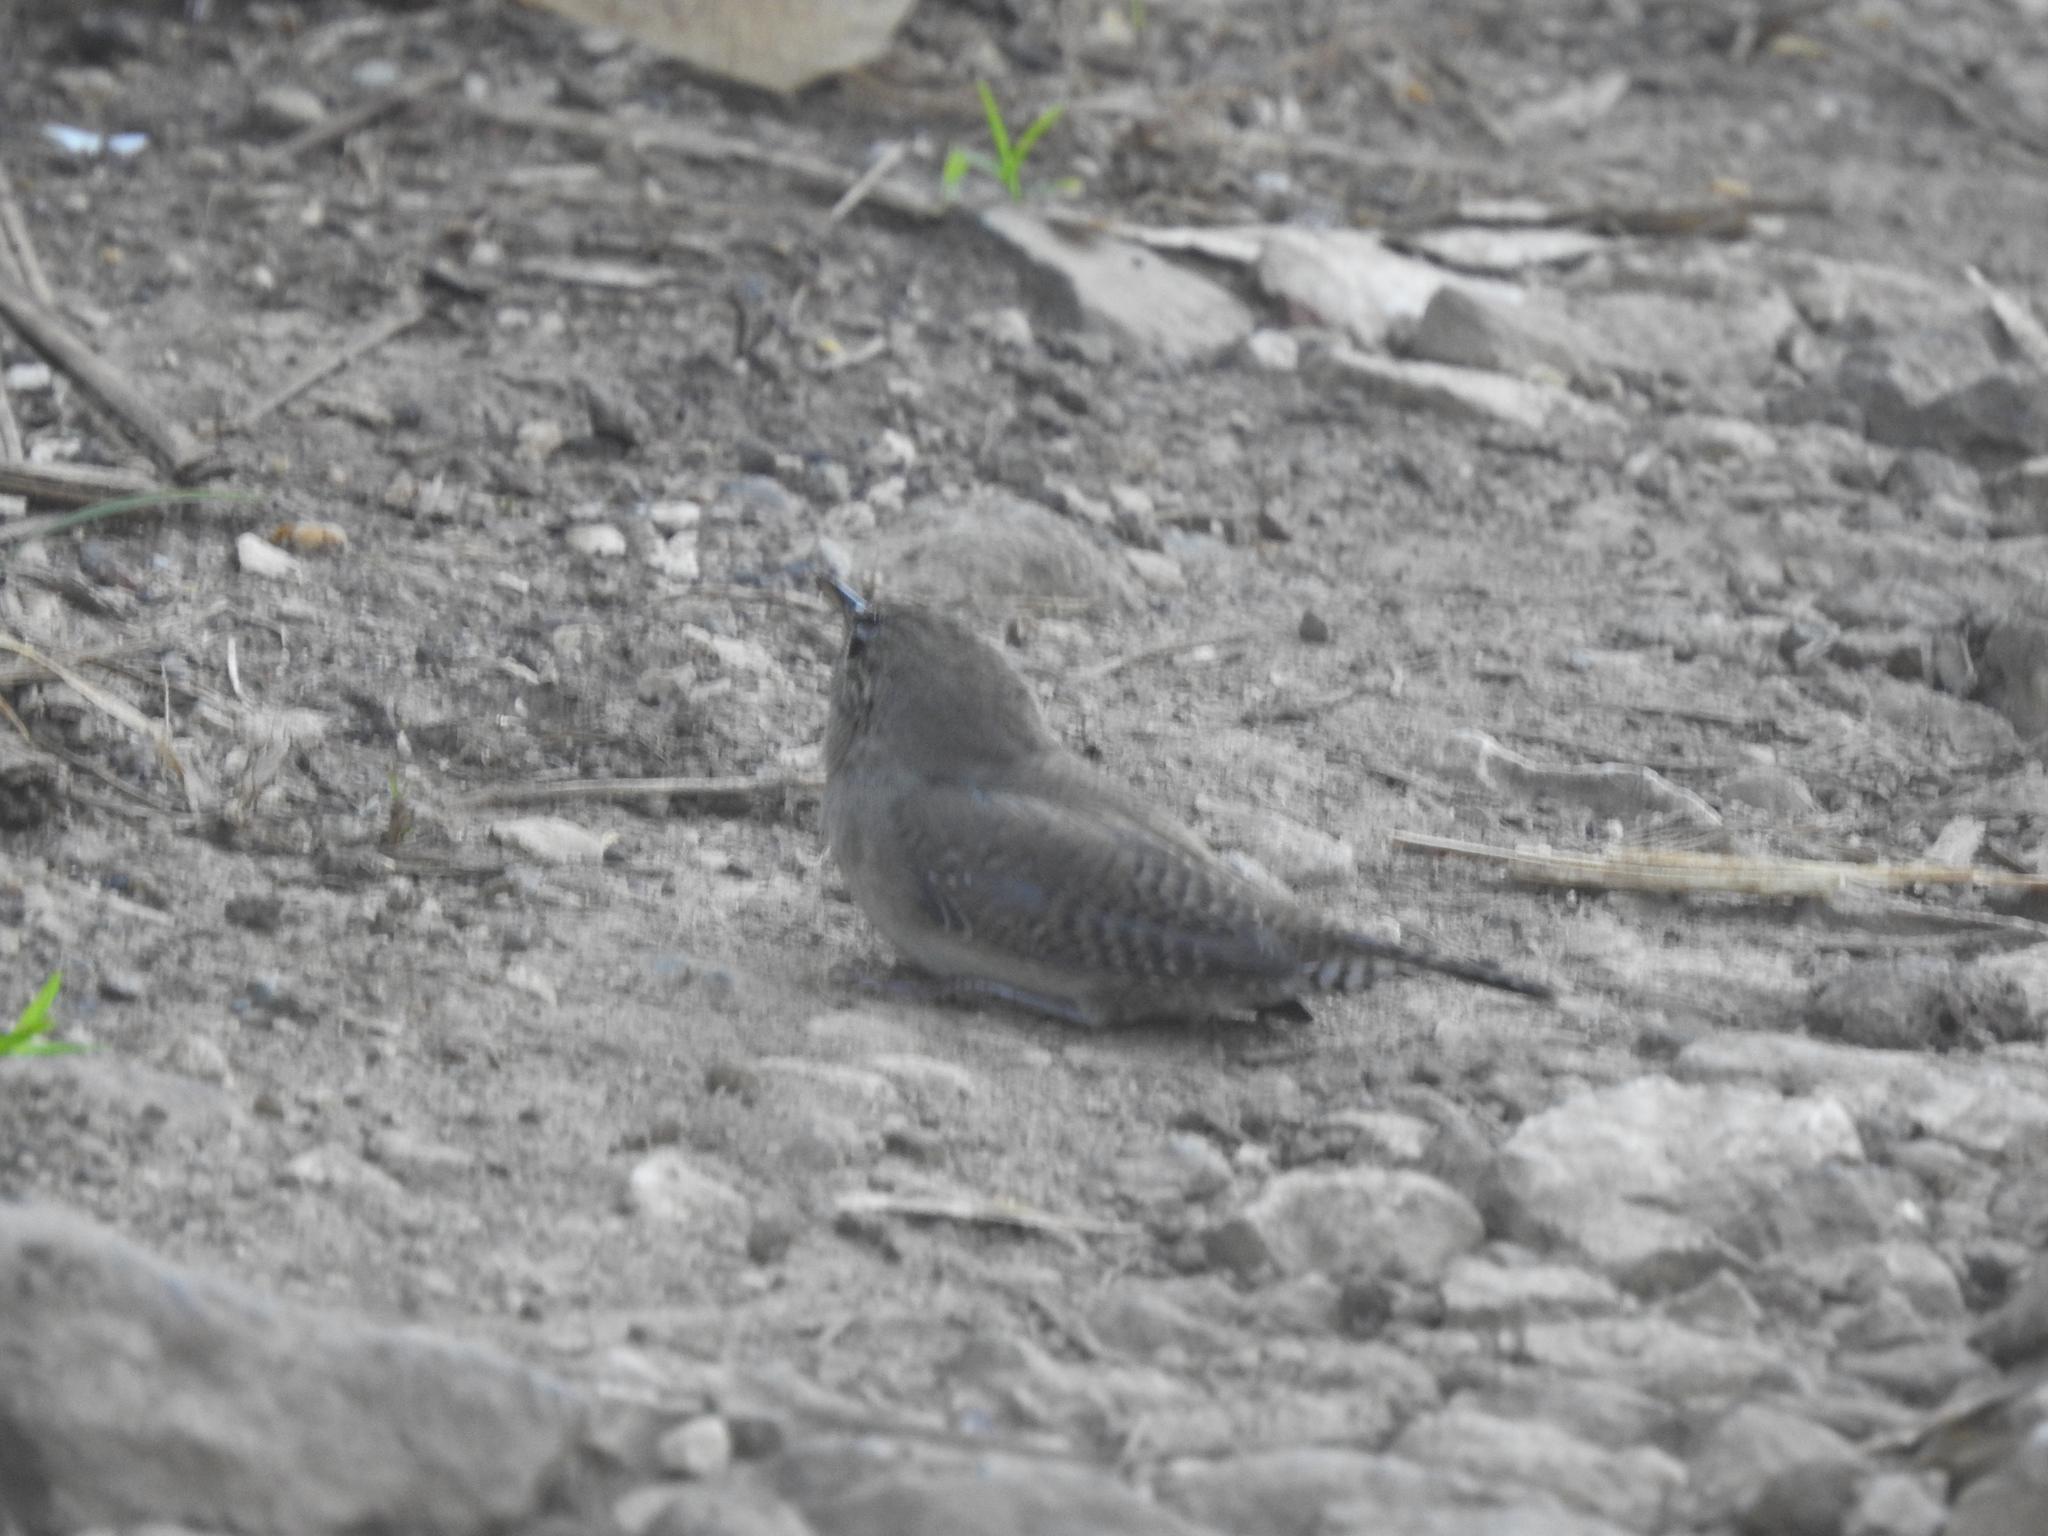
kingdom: Animalia
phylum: Chordata
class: Aves
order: Passeriformes
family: Troglodytidae
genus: Troglodytes
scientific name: Troglodytes aedon
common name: House wren
